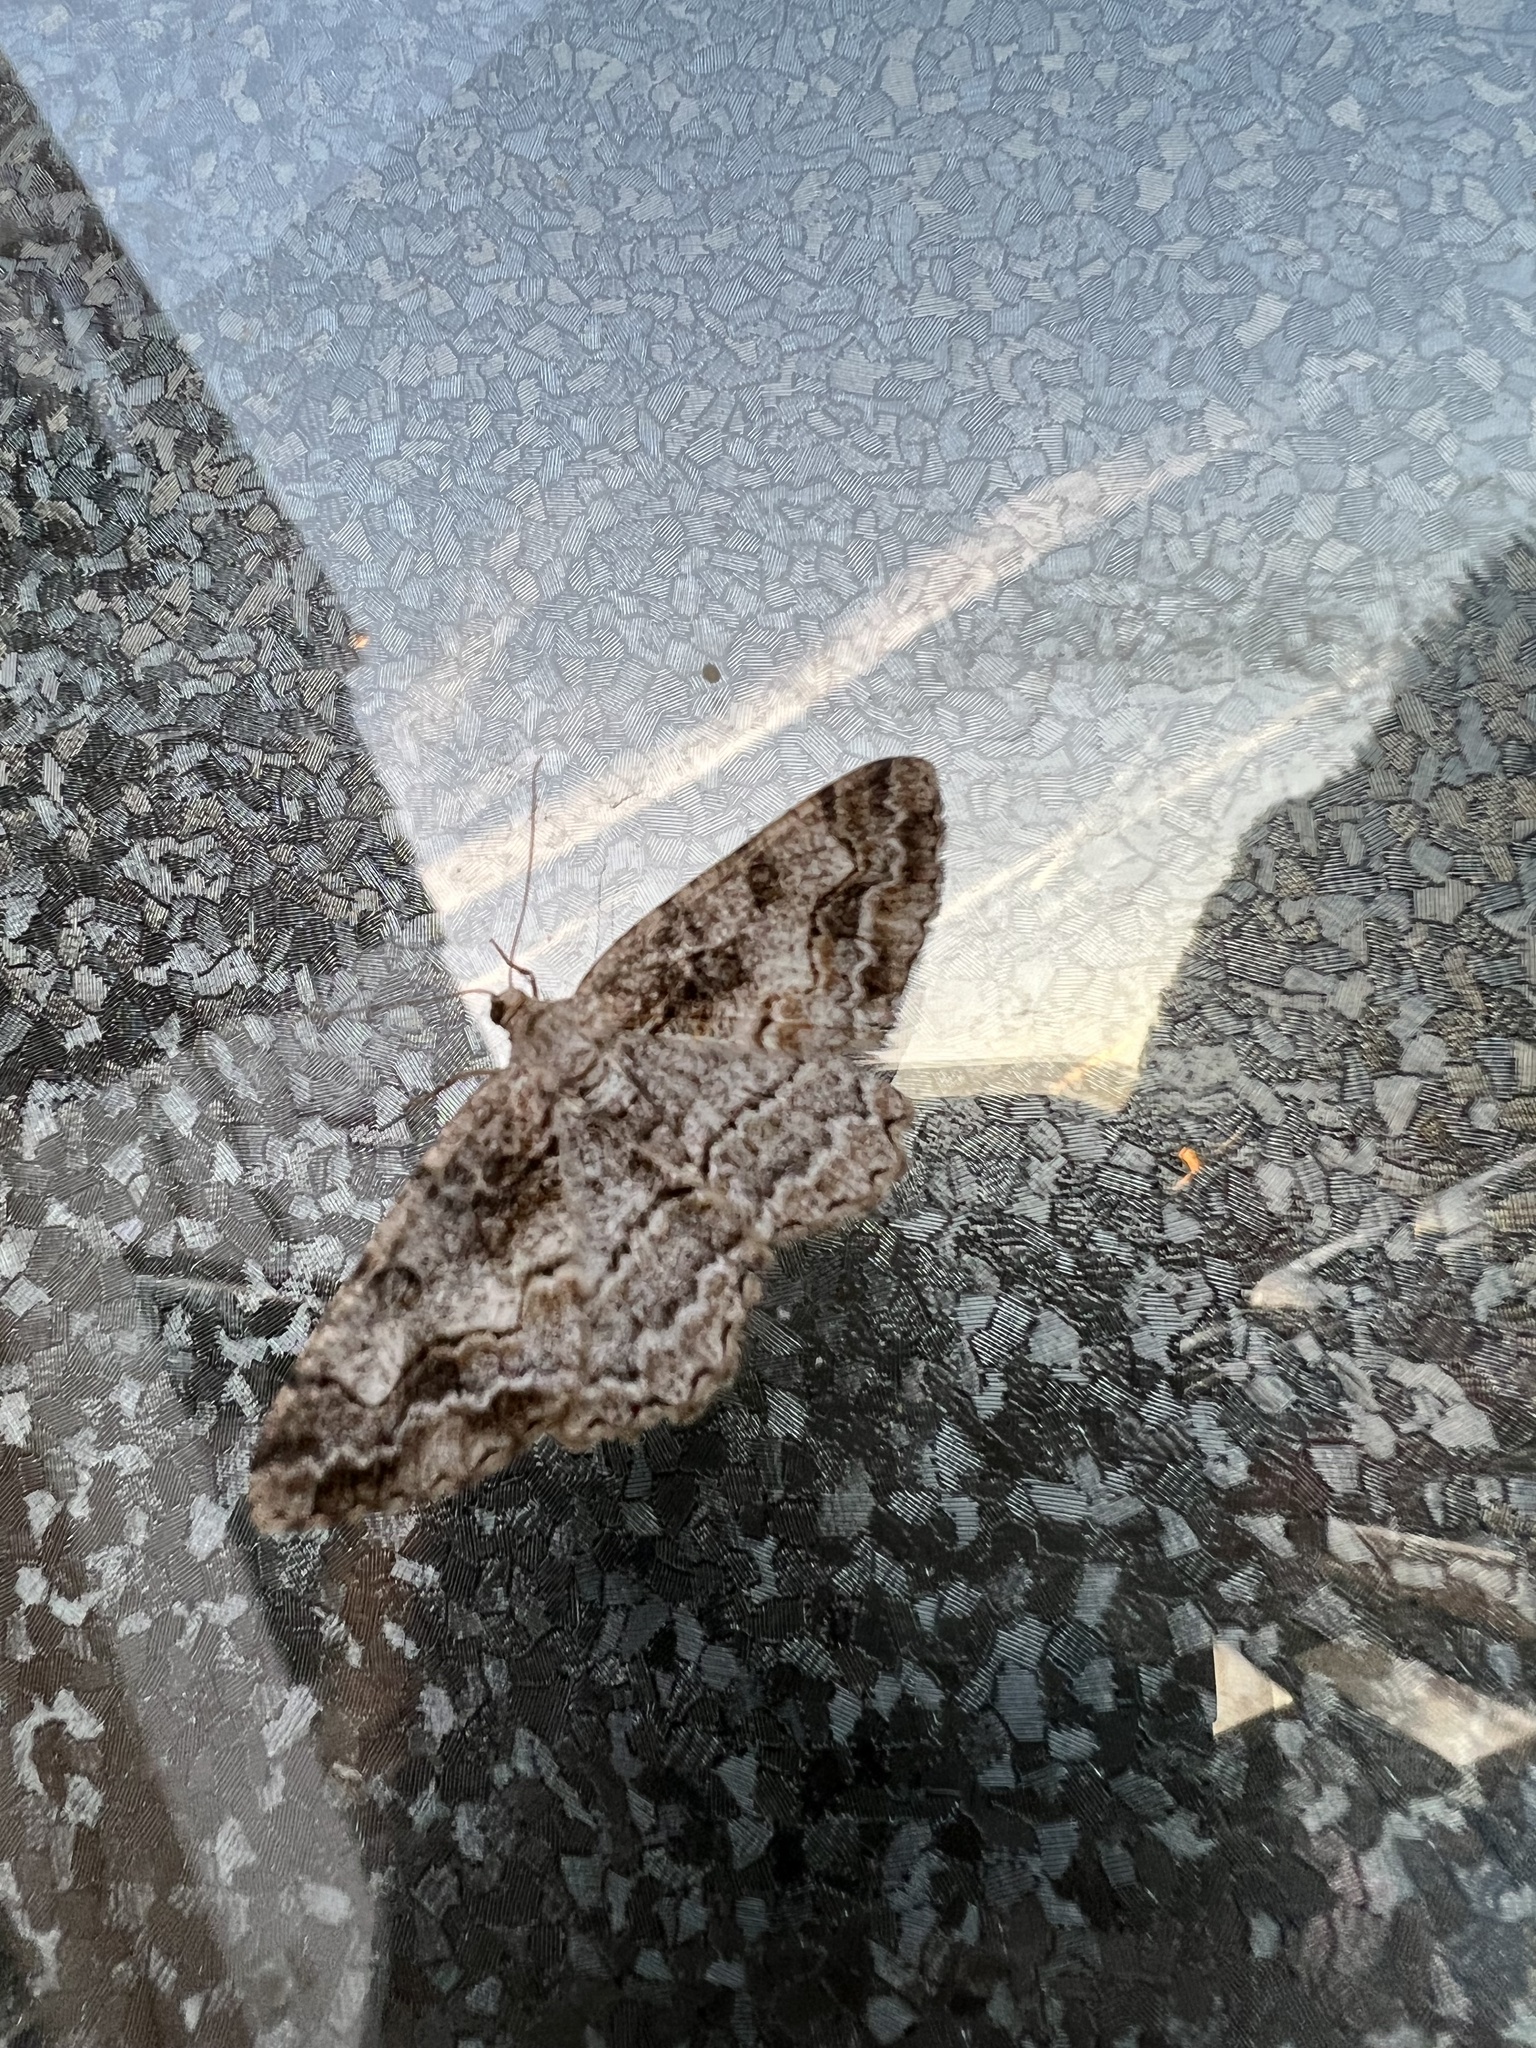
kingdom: Animalia
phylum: Arthropoda
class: Insecta
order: Lepidoptera
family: Geometridae
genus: Alcis
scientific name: Alcis repandata
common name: Mottled beauty
